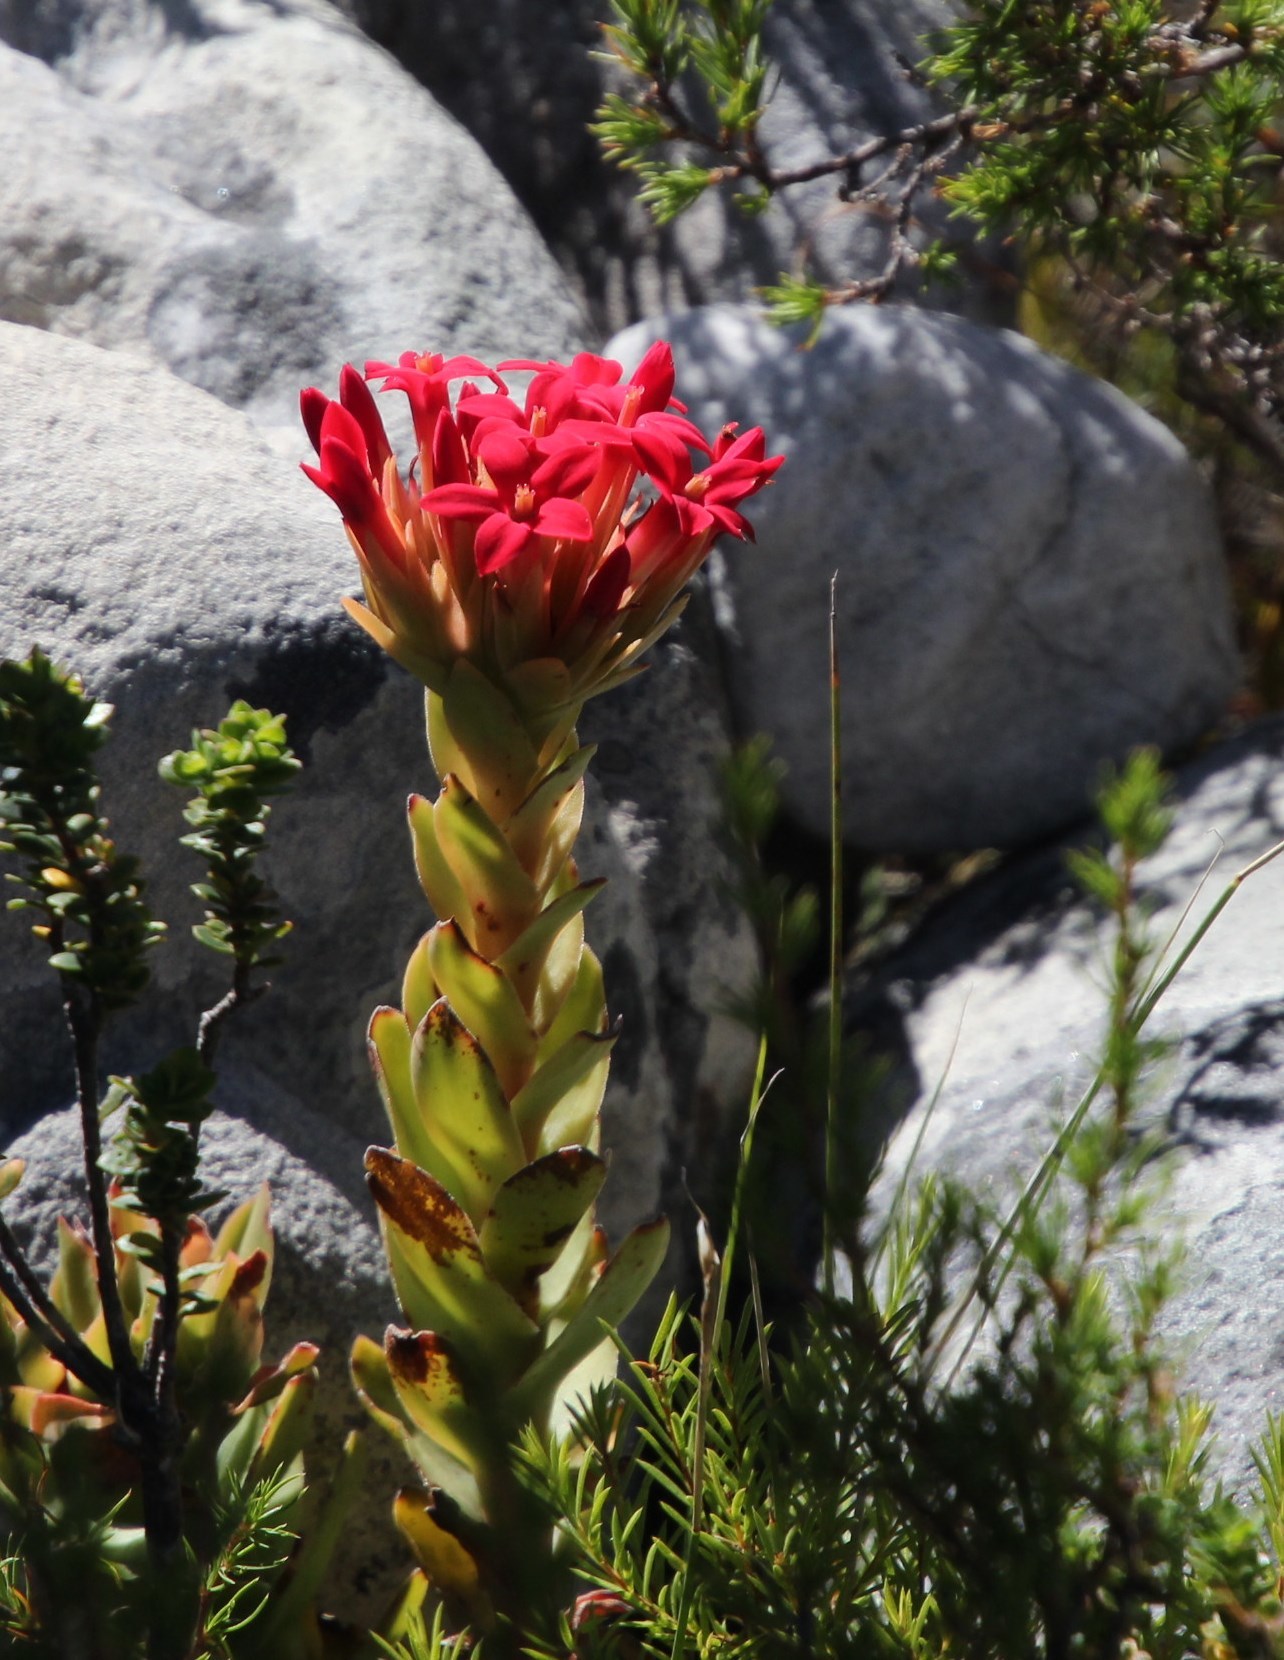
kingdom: Plantae
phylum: Tracheophyta
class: Magnoliopsida
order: Saxifragales
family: Crassulaceae
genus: Crassula
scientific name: Crassula coccinea
